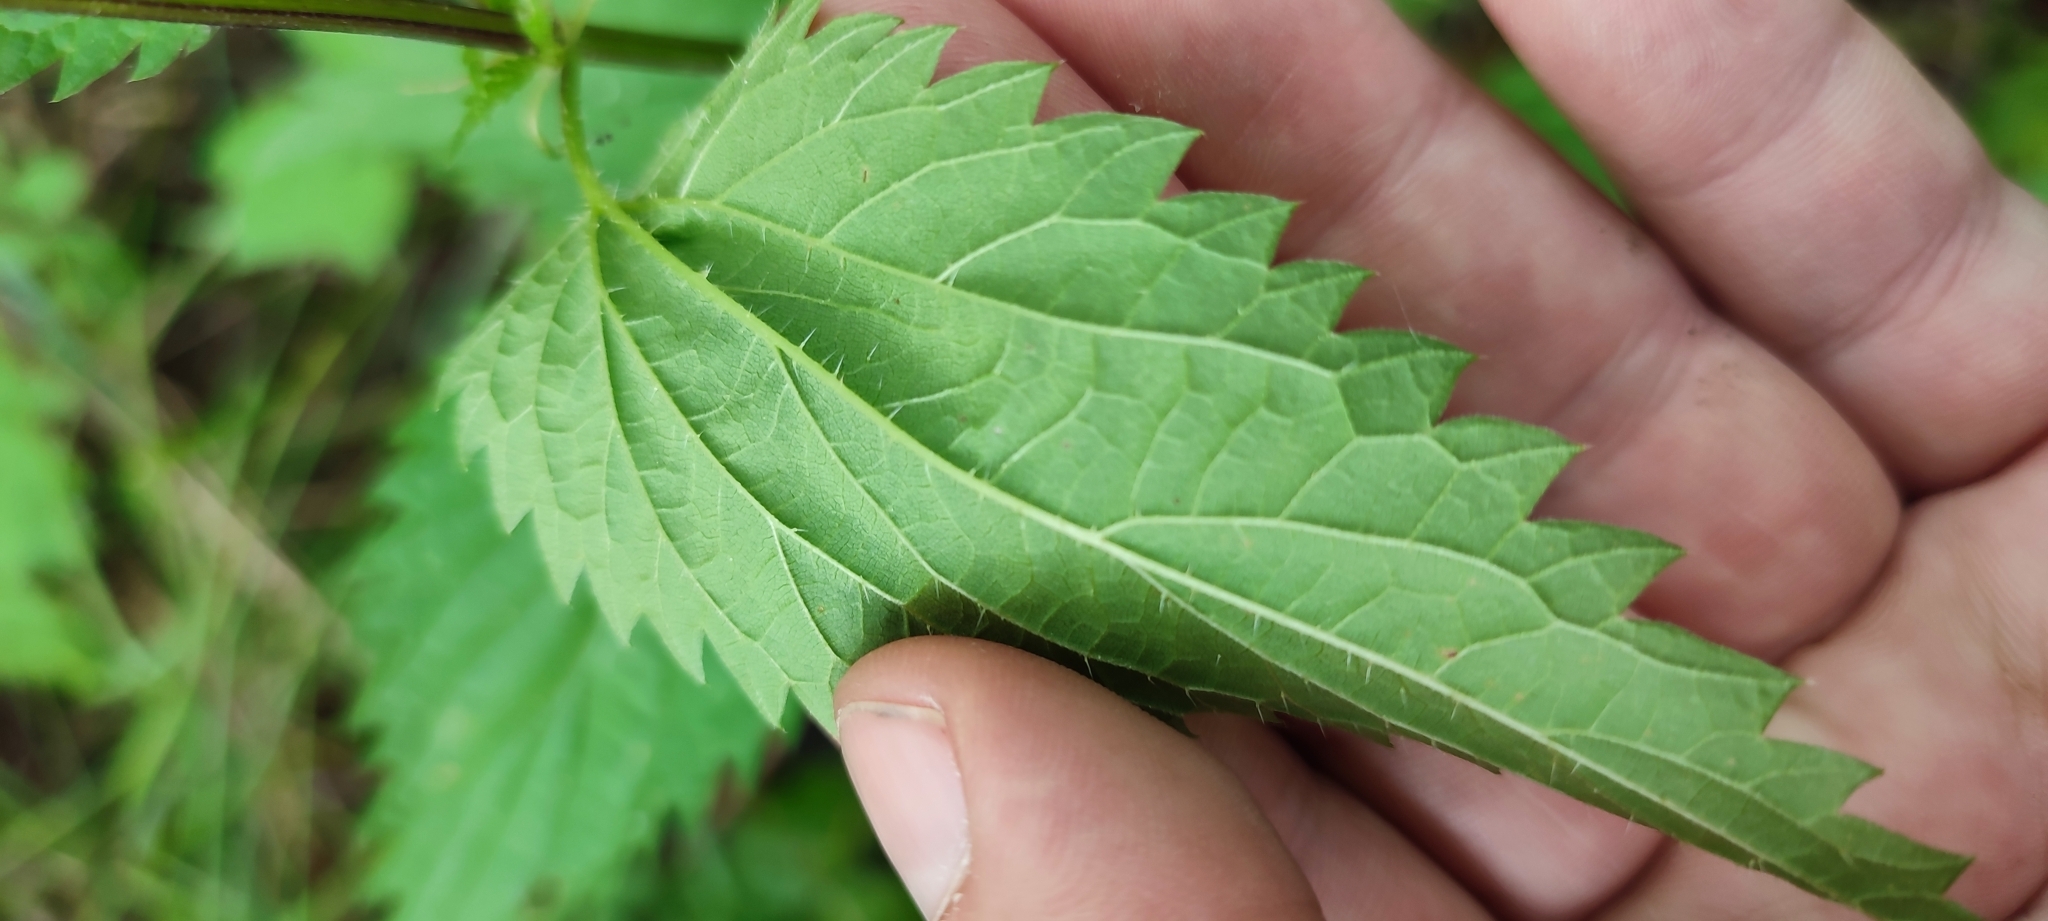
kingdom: Plantae
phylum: Tracheophyta
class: Magnoliopsida
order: Rosales
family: Urticaceae
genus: Urtica
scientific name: Urtica dioica
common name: Common nettle
